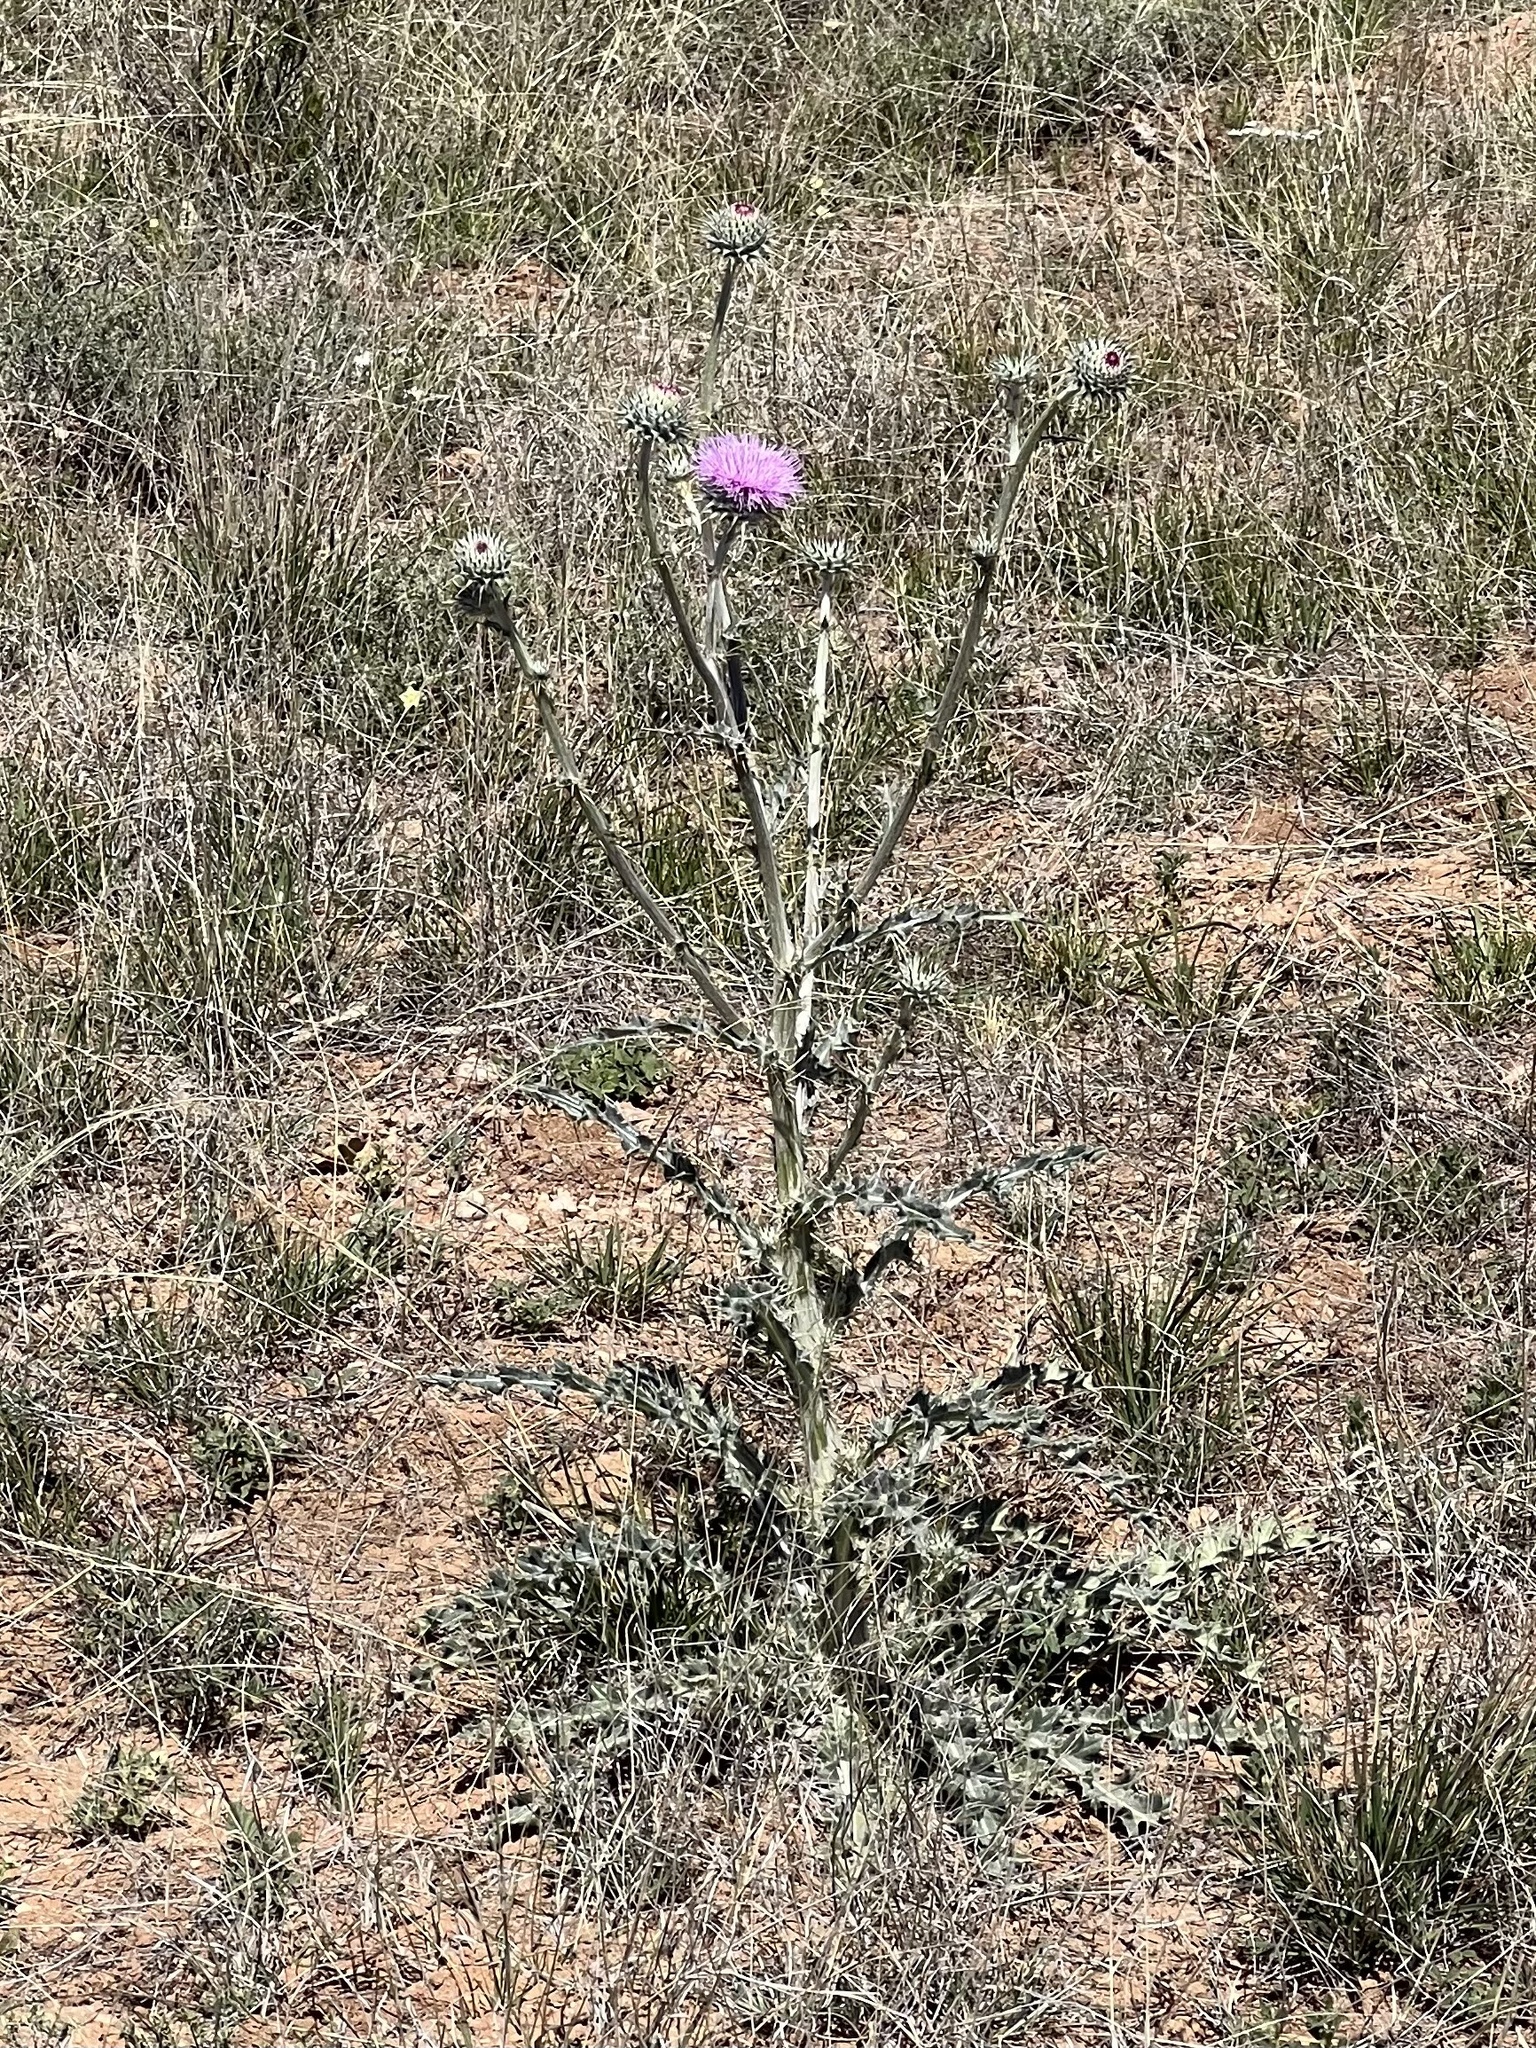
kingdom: Plantae
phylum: Tracheophyta
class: Magnoliopsida
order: Asterales
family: Asteraceae
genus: Cirsium
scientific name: Cirsium neomexicanum
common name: New mexico thistle
